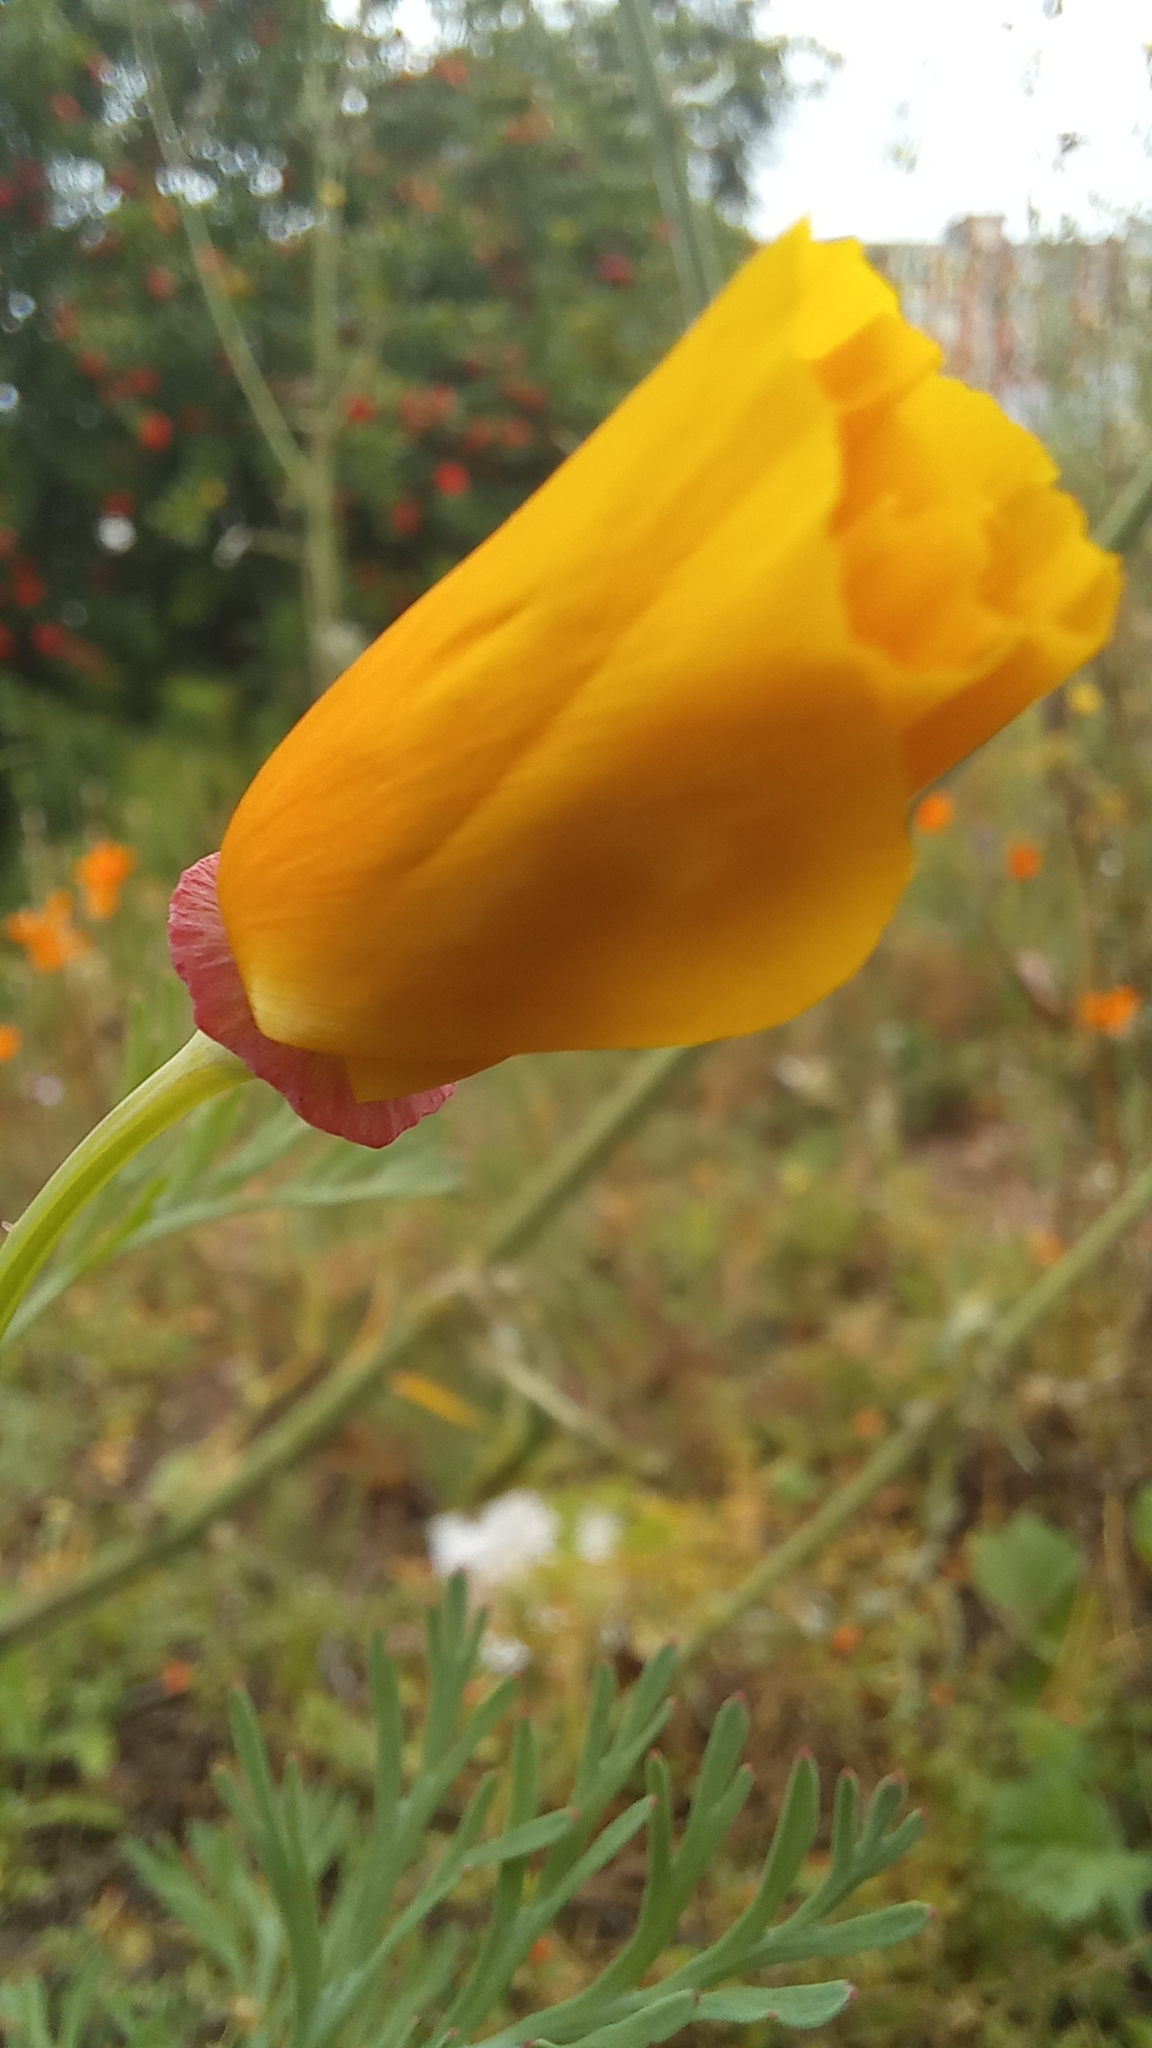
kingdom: Plantae
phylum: Tracheophyta
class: Magnoliopsida
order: Ranunculales
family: Papaveraceae
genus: Eschscholzia
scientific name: Eschscholzia californica
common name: California poppy
